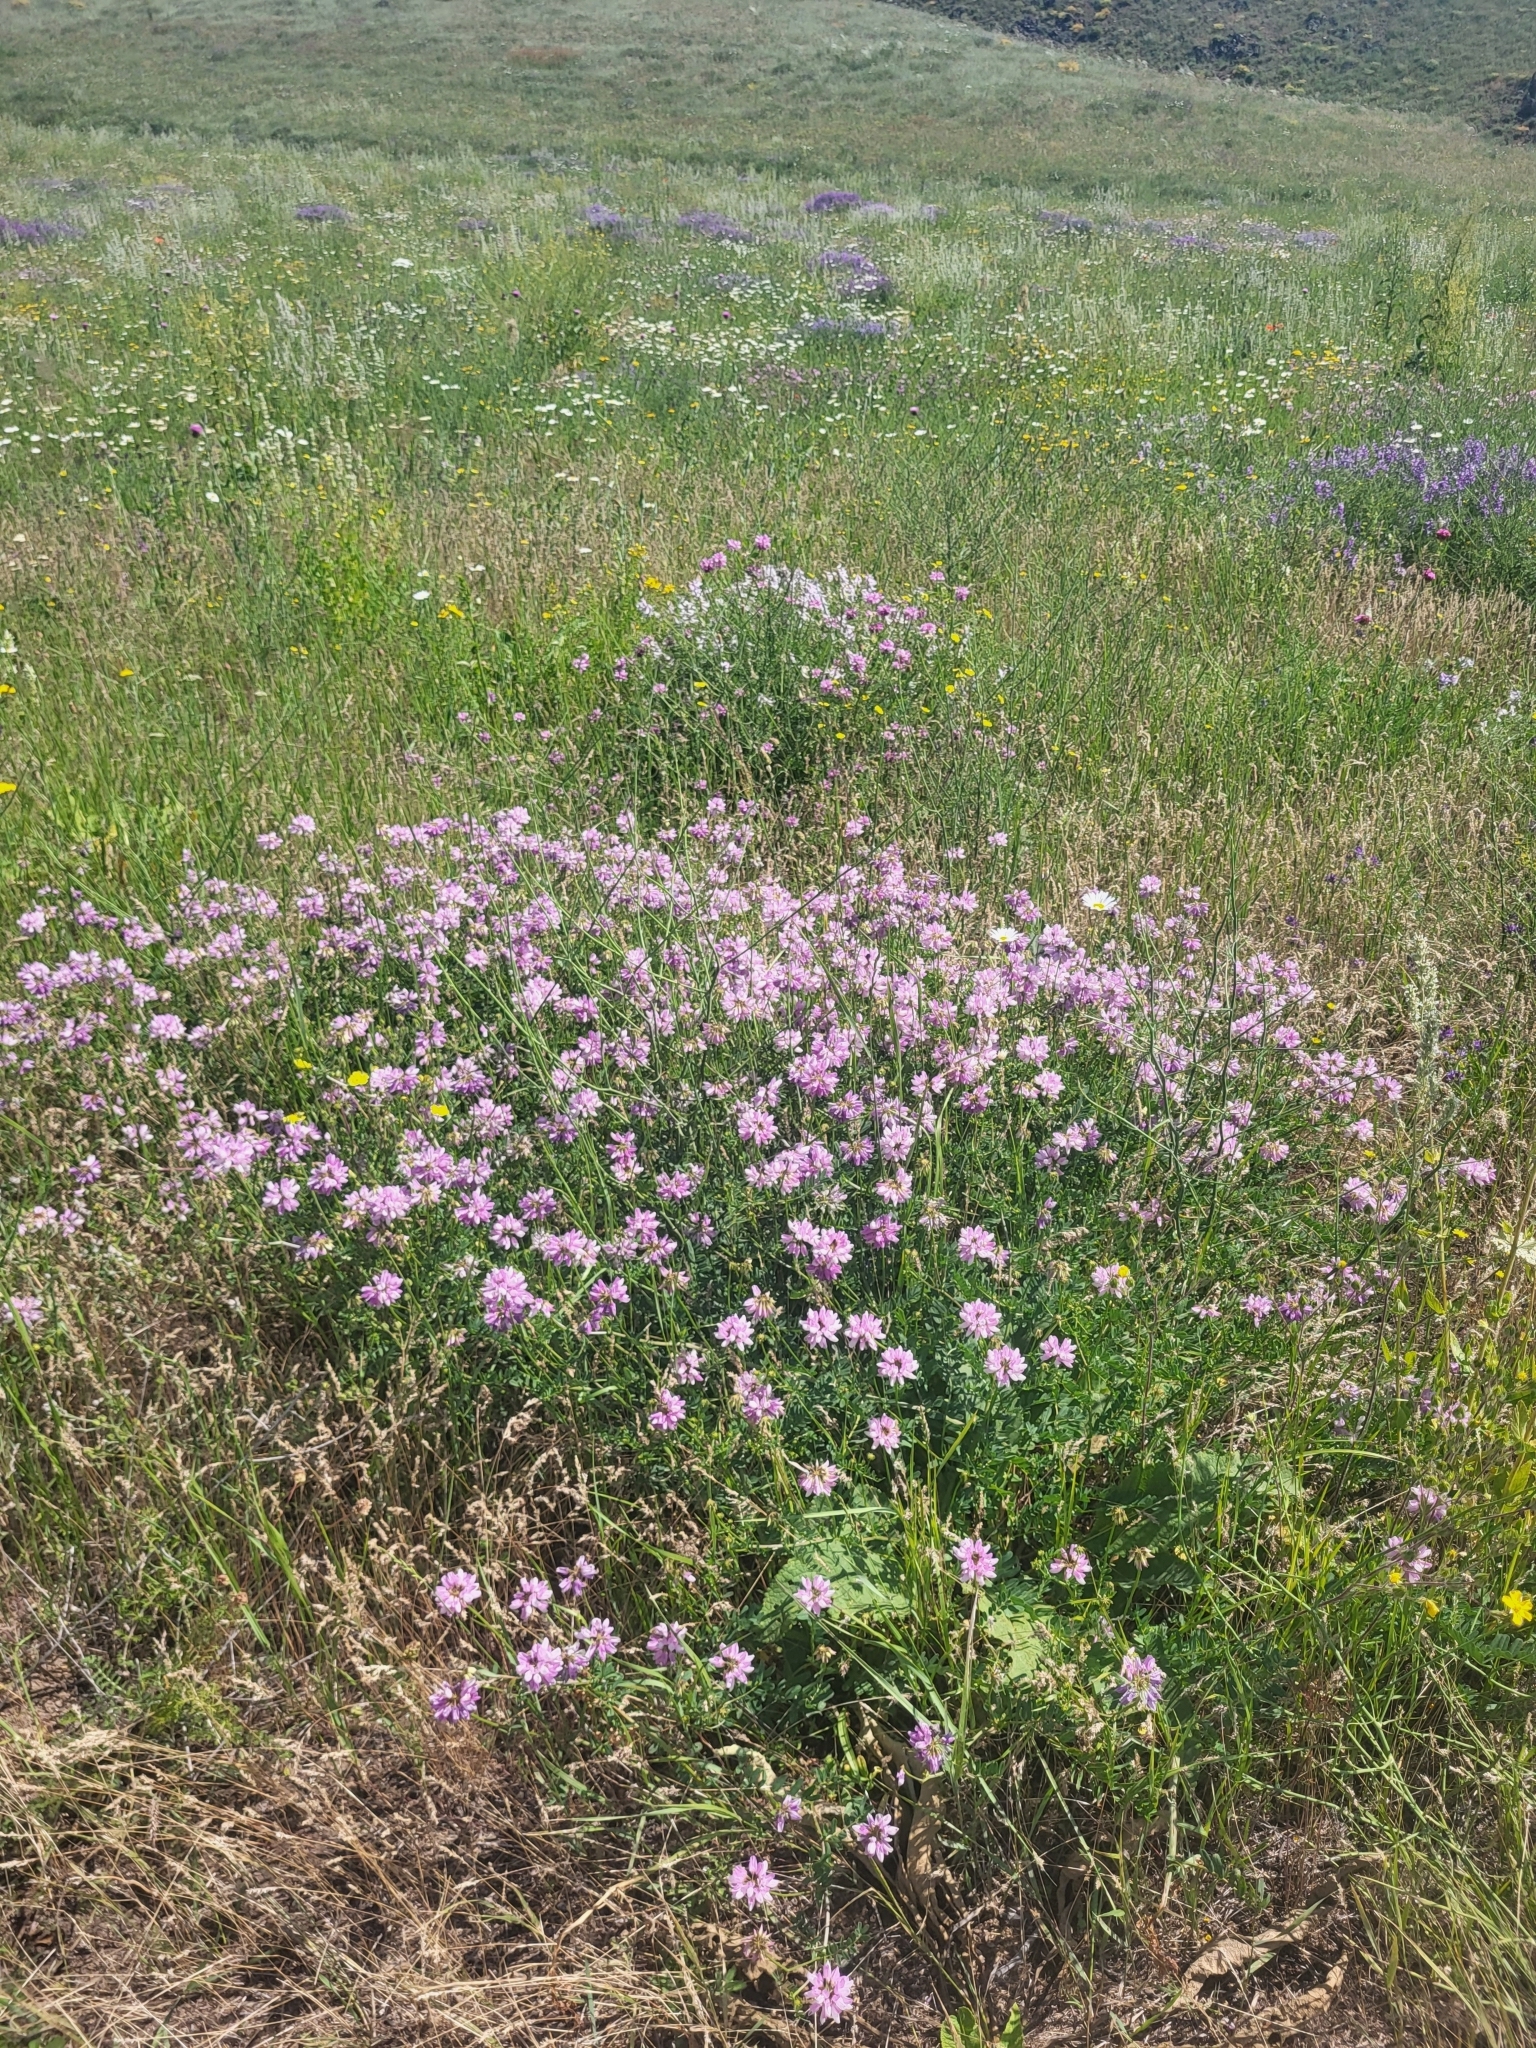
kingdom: Plantae
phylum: Tracheophyta
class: Magnoliopsida
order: Fabales
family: Fabaceae
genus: Coronilla
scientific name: Coronilla varia
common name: Crownvetch
